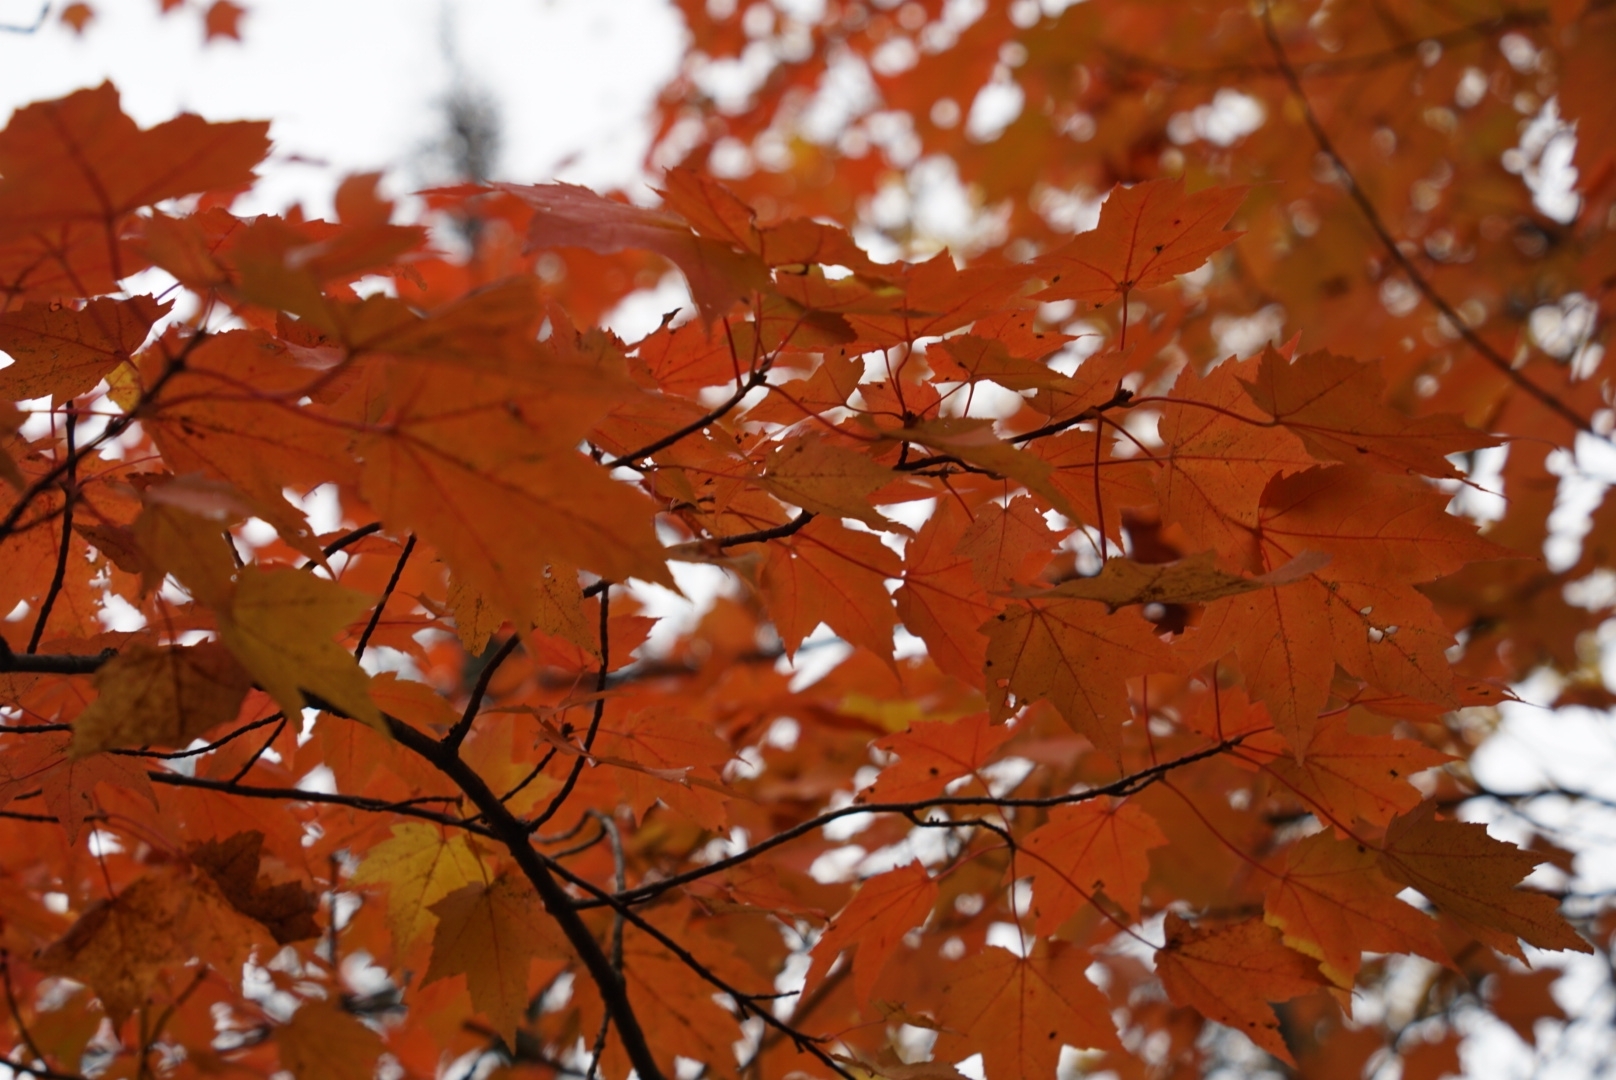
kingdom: Plantae
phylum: Tracheophyta
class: Magnoliopsida
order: Sapindales
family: Sapindaceae
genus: Acer
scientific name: Acer rubrum
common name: Red maple
